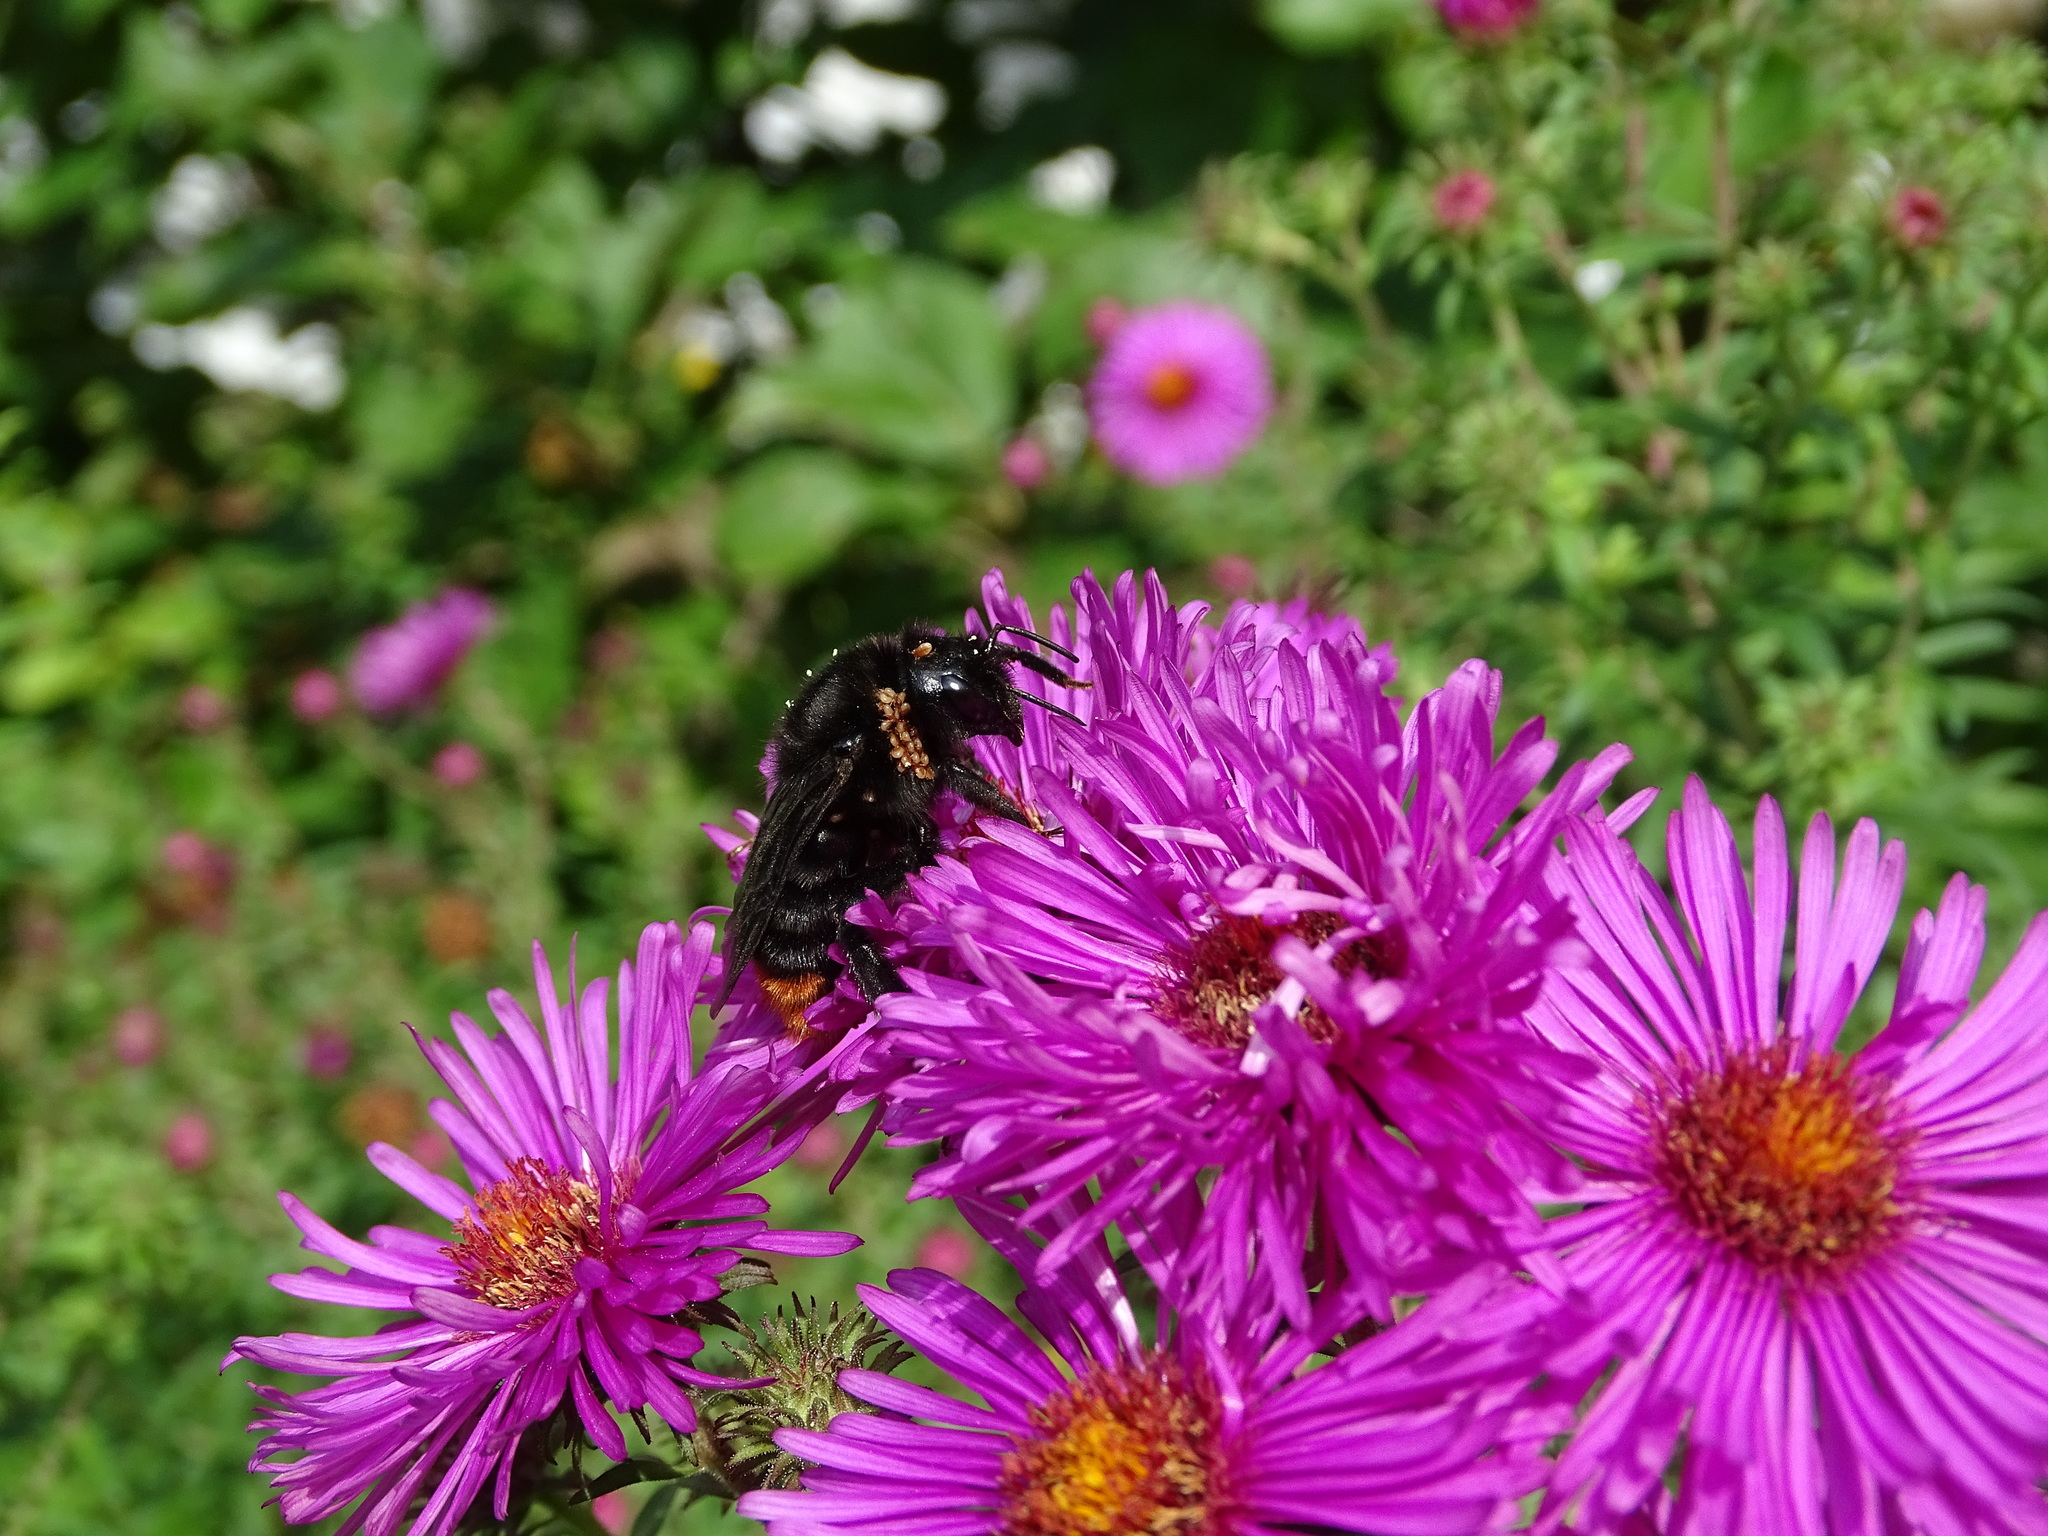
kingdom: Animalia
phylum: Arthropoda
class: Insecta
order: Hymenoptera
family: Apidae
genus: Bombus
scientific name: Bombus rupestris
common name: Hill cuckoo-bee
